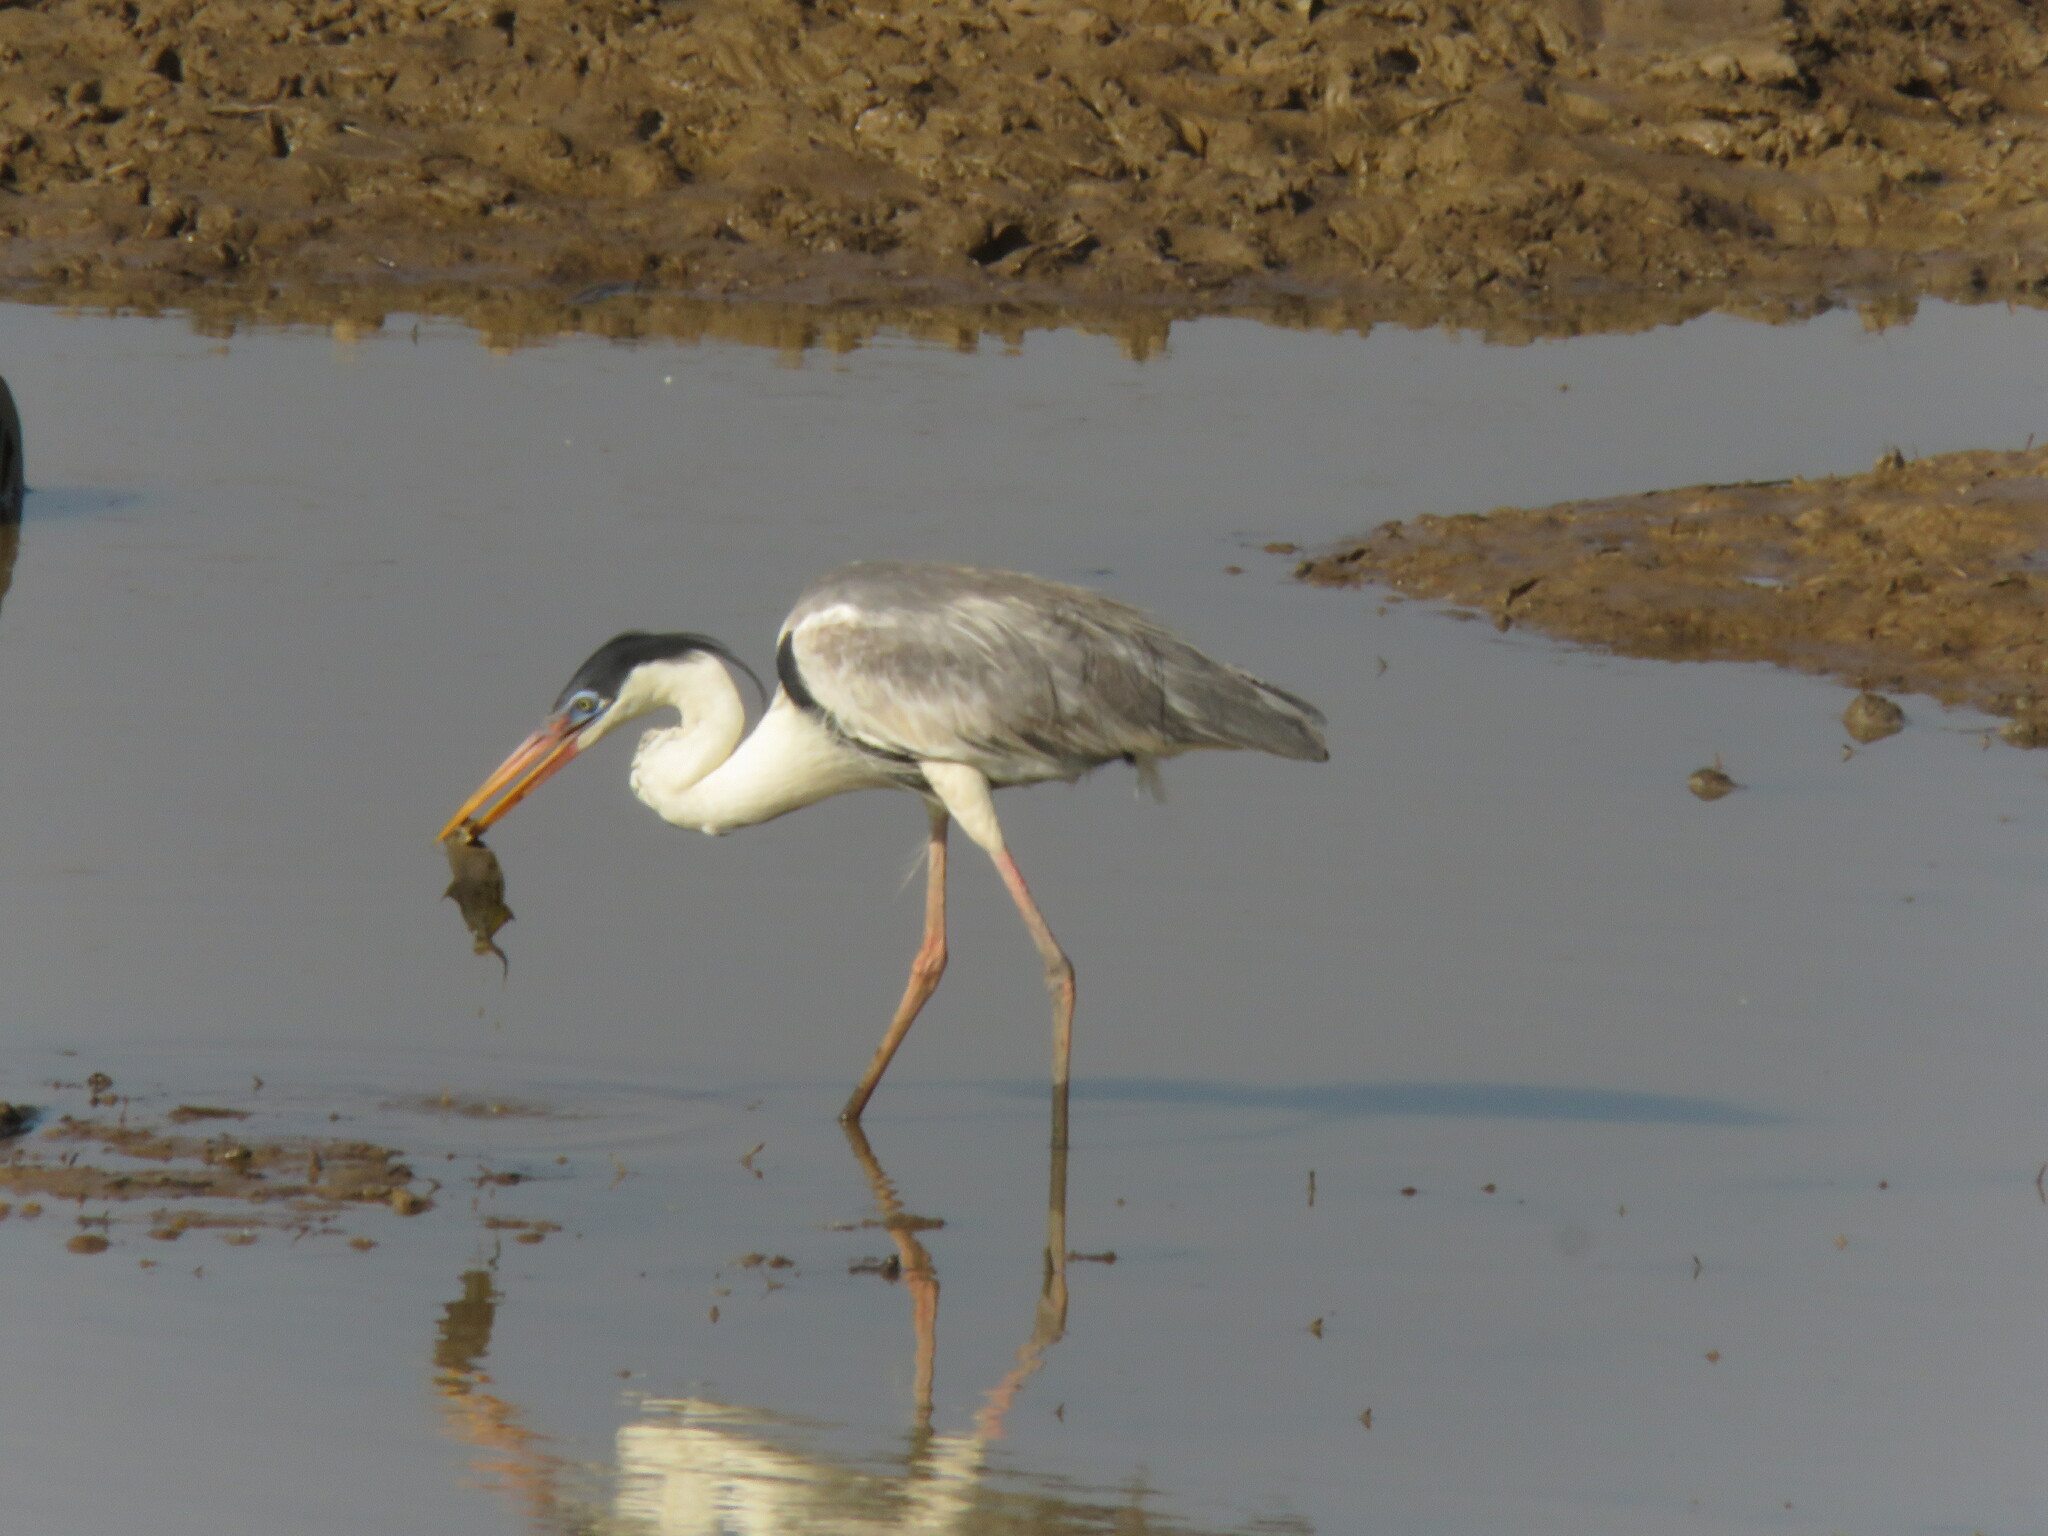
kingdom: Animalia
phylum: Chordata
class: Aves
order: Pelecaniformes
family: Ardeidae
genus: Ardea
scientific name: Ardea cocoi
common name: Cocoi heron
